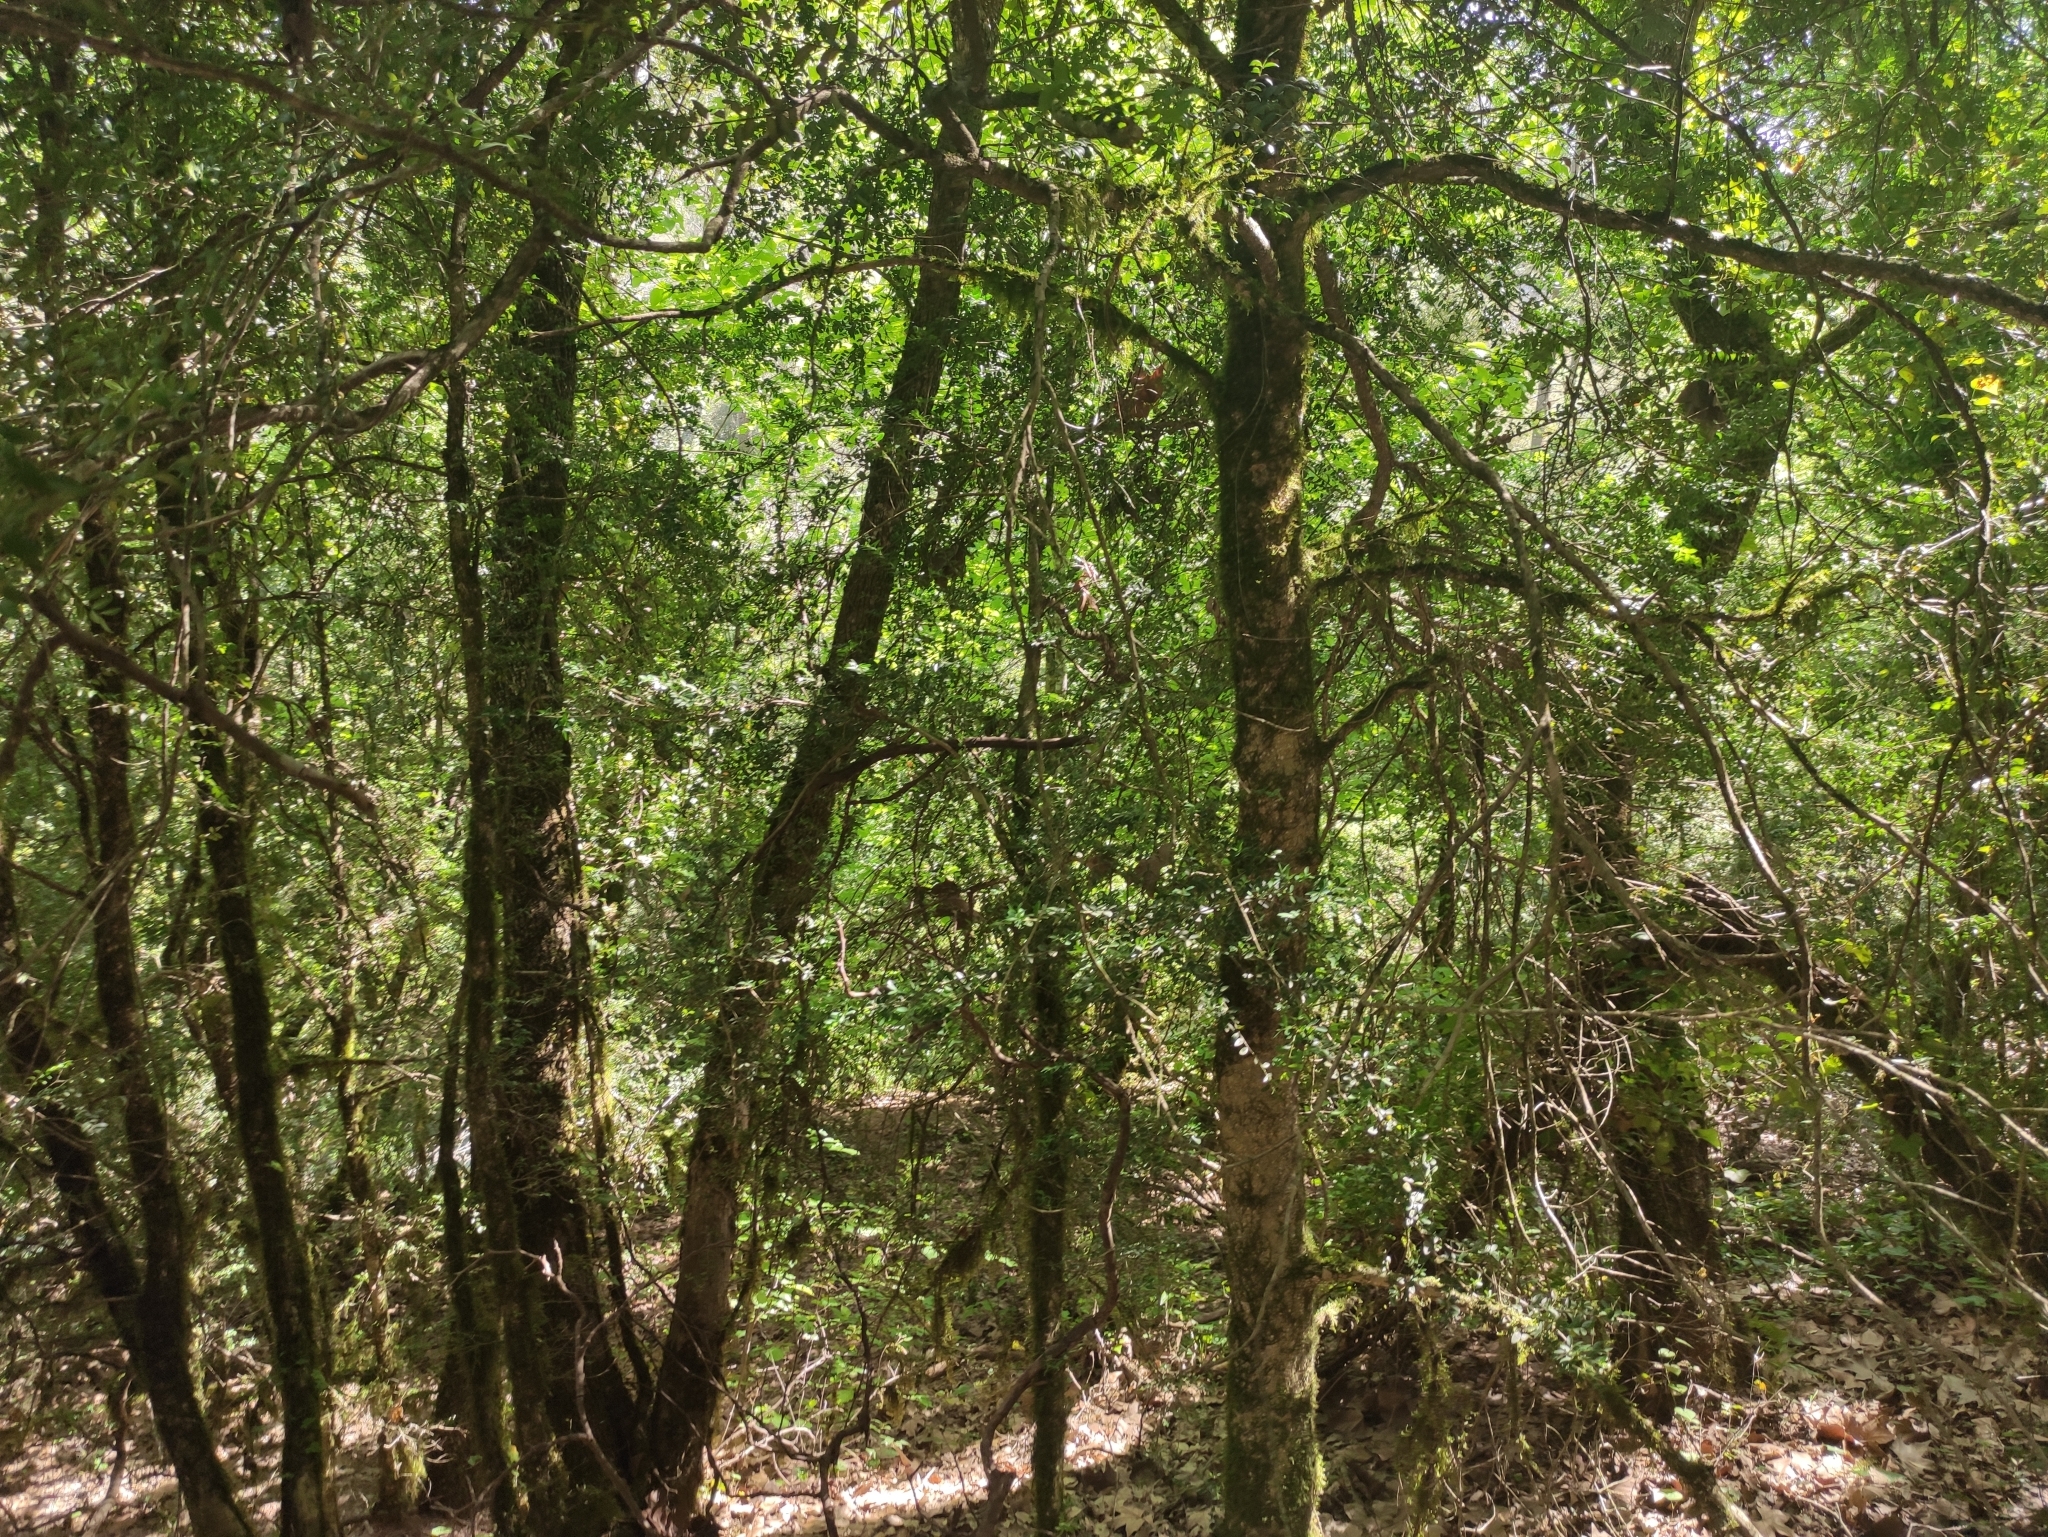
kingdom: Plantae
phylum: Tracheophyta
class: Magnoliopsida
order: Buxales
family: Buxaceae
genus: Buxus
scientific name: Buxus sempervirens
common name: Box
